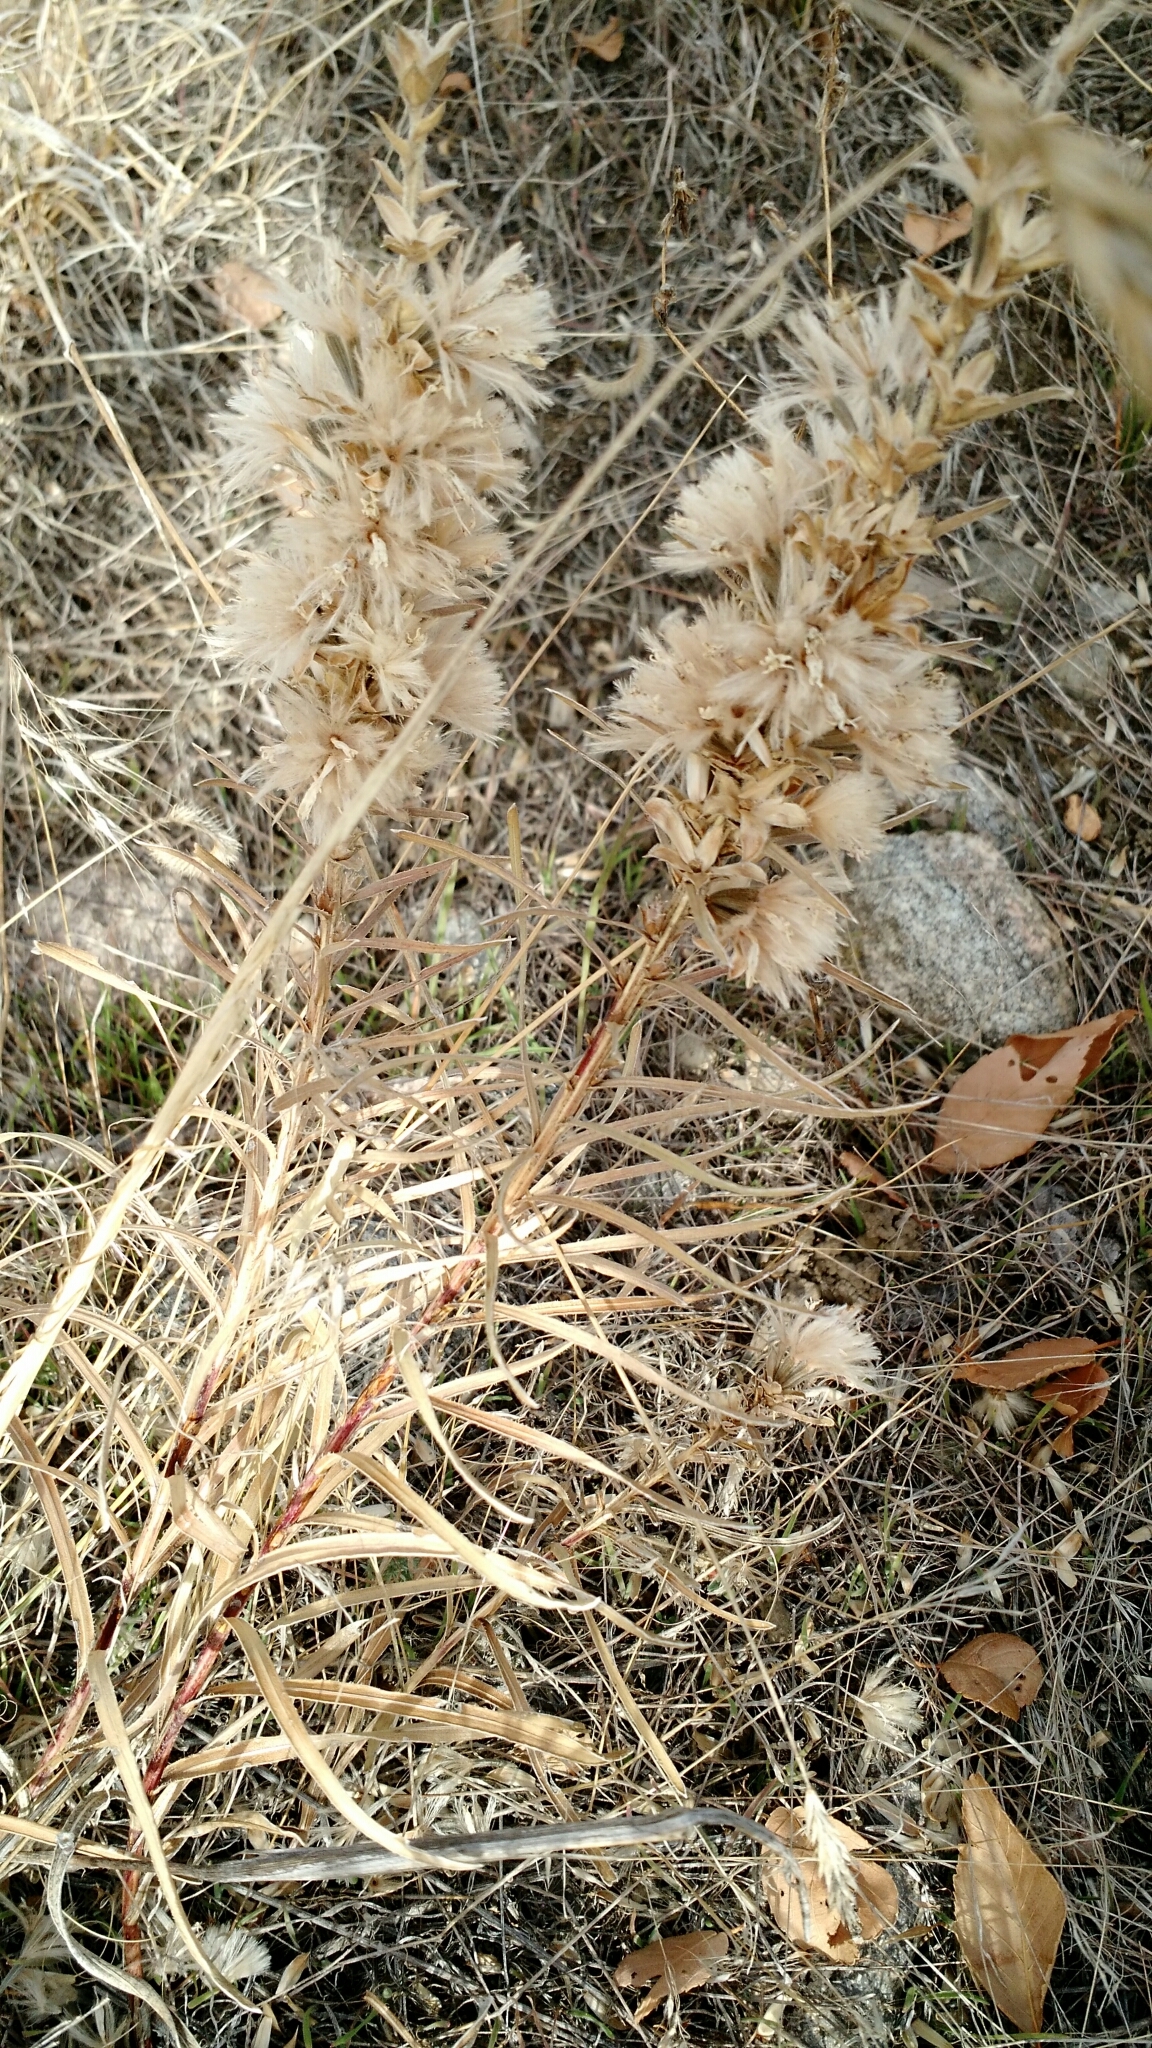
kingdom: Plantae
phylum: Tracheophyta
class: Magnoliopsida
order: Asterales
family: Asteraceae
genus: Liatris
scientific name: Liatris punctata
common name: Dotted gayfeather
